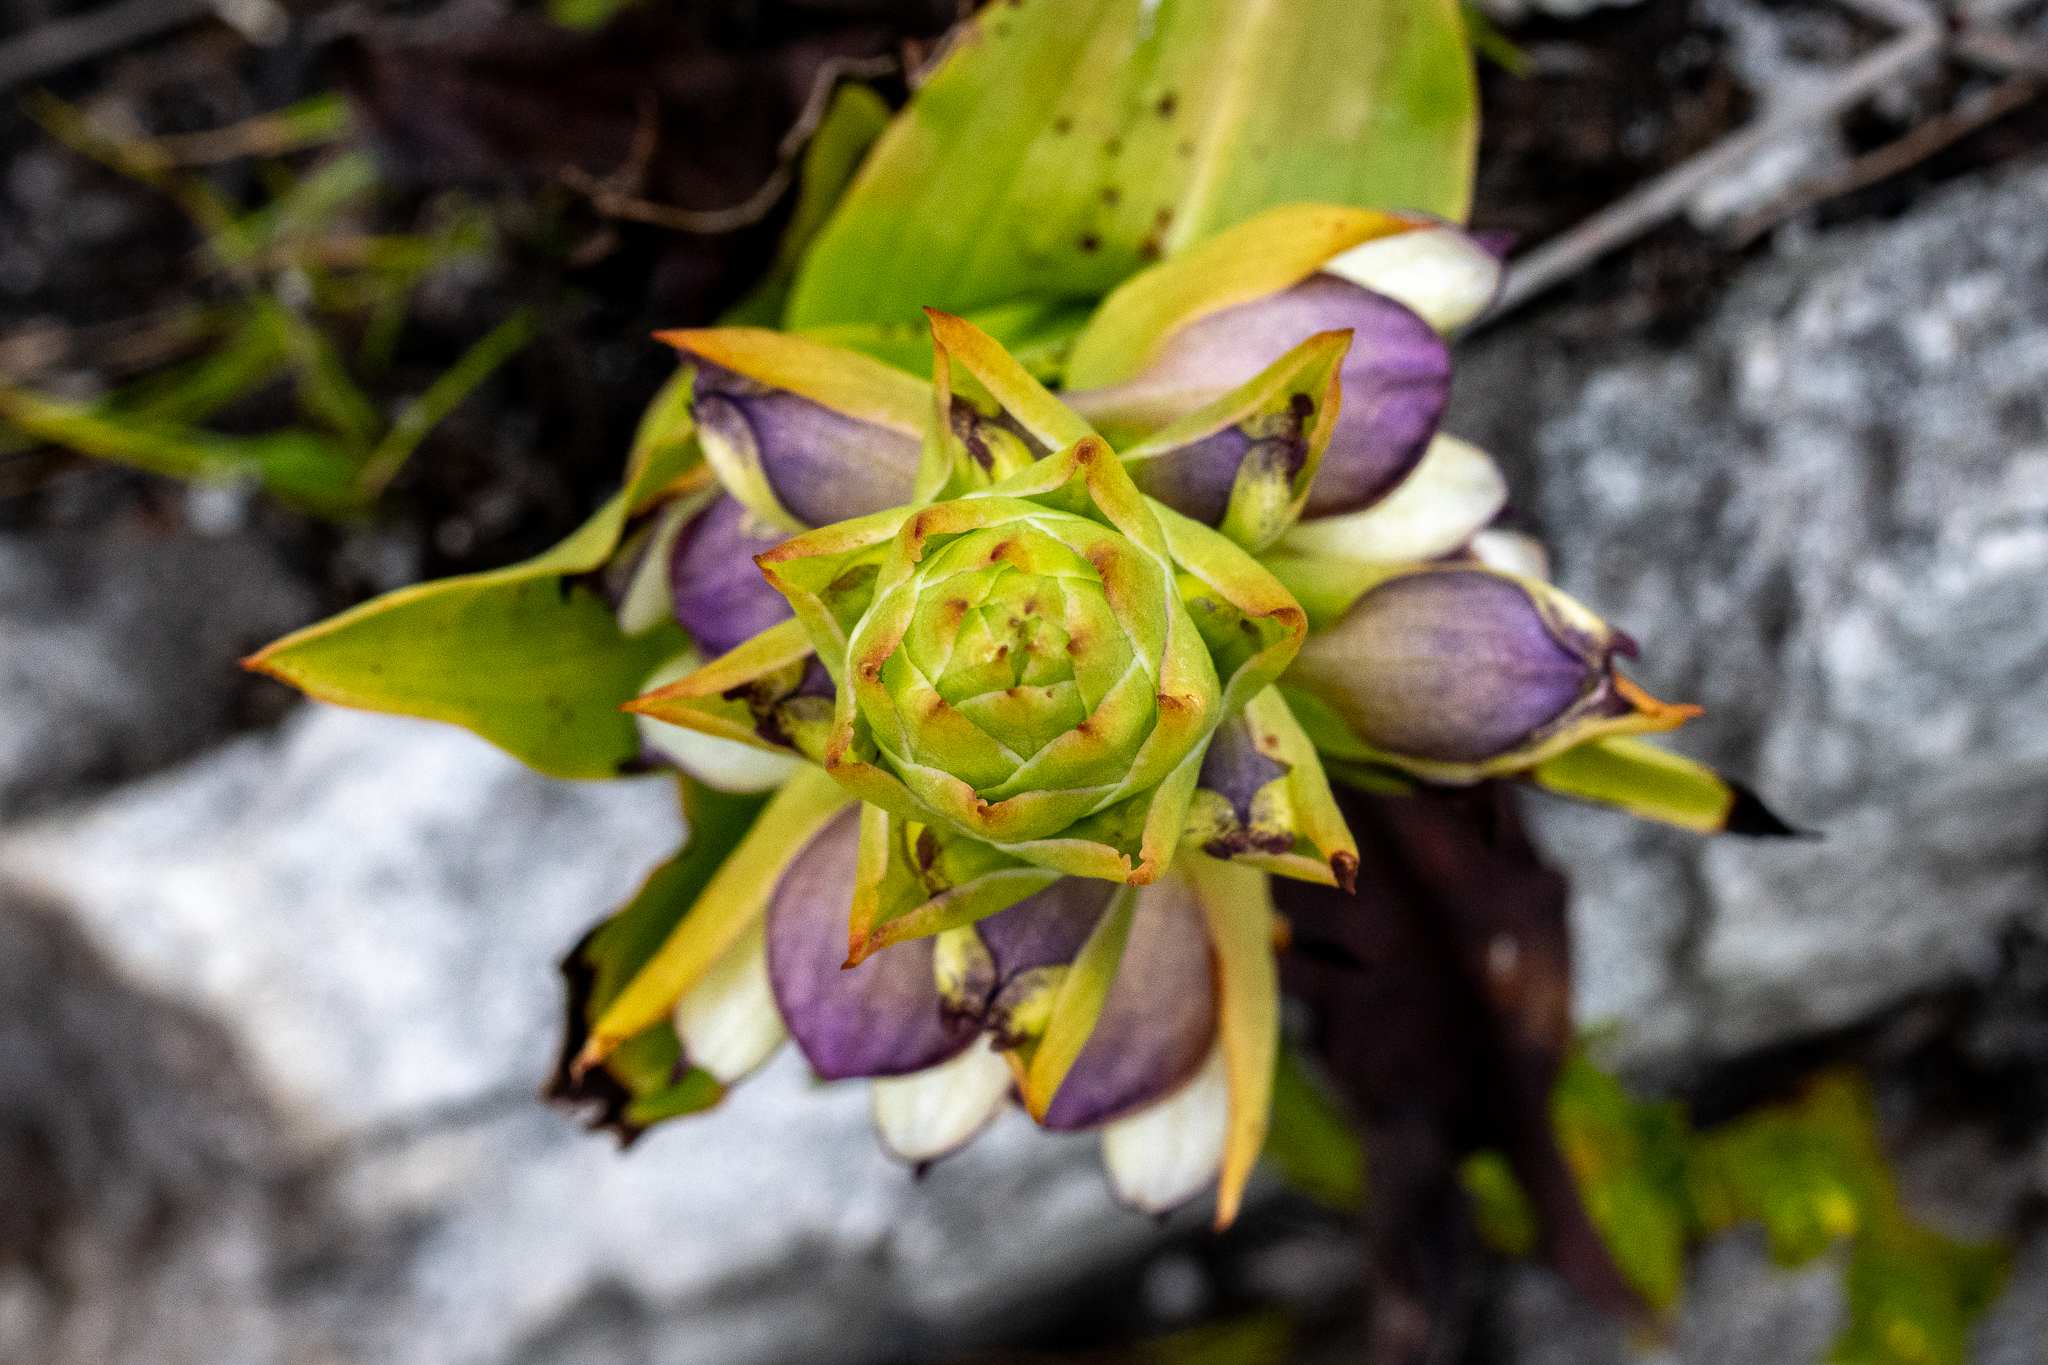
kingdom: Plantae
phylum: Tracheophyta
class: Liliopsida
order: Asparagales
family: Orchidaceae
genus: Disa
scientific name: Disa cornuta
